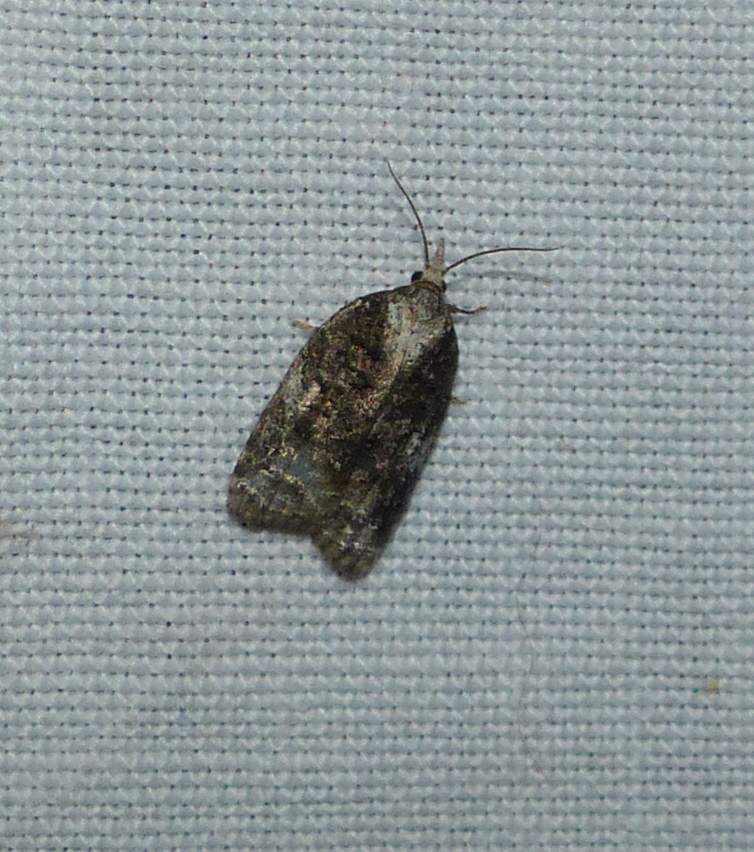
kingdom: Animalia
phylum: Arthropoda
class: Insecta
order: Lepidoptera
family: Tortricidae
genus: Platynota
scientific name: Platynota exasperatana
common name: Exasperating platynota moth
